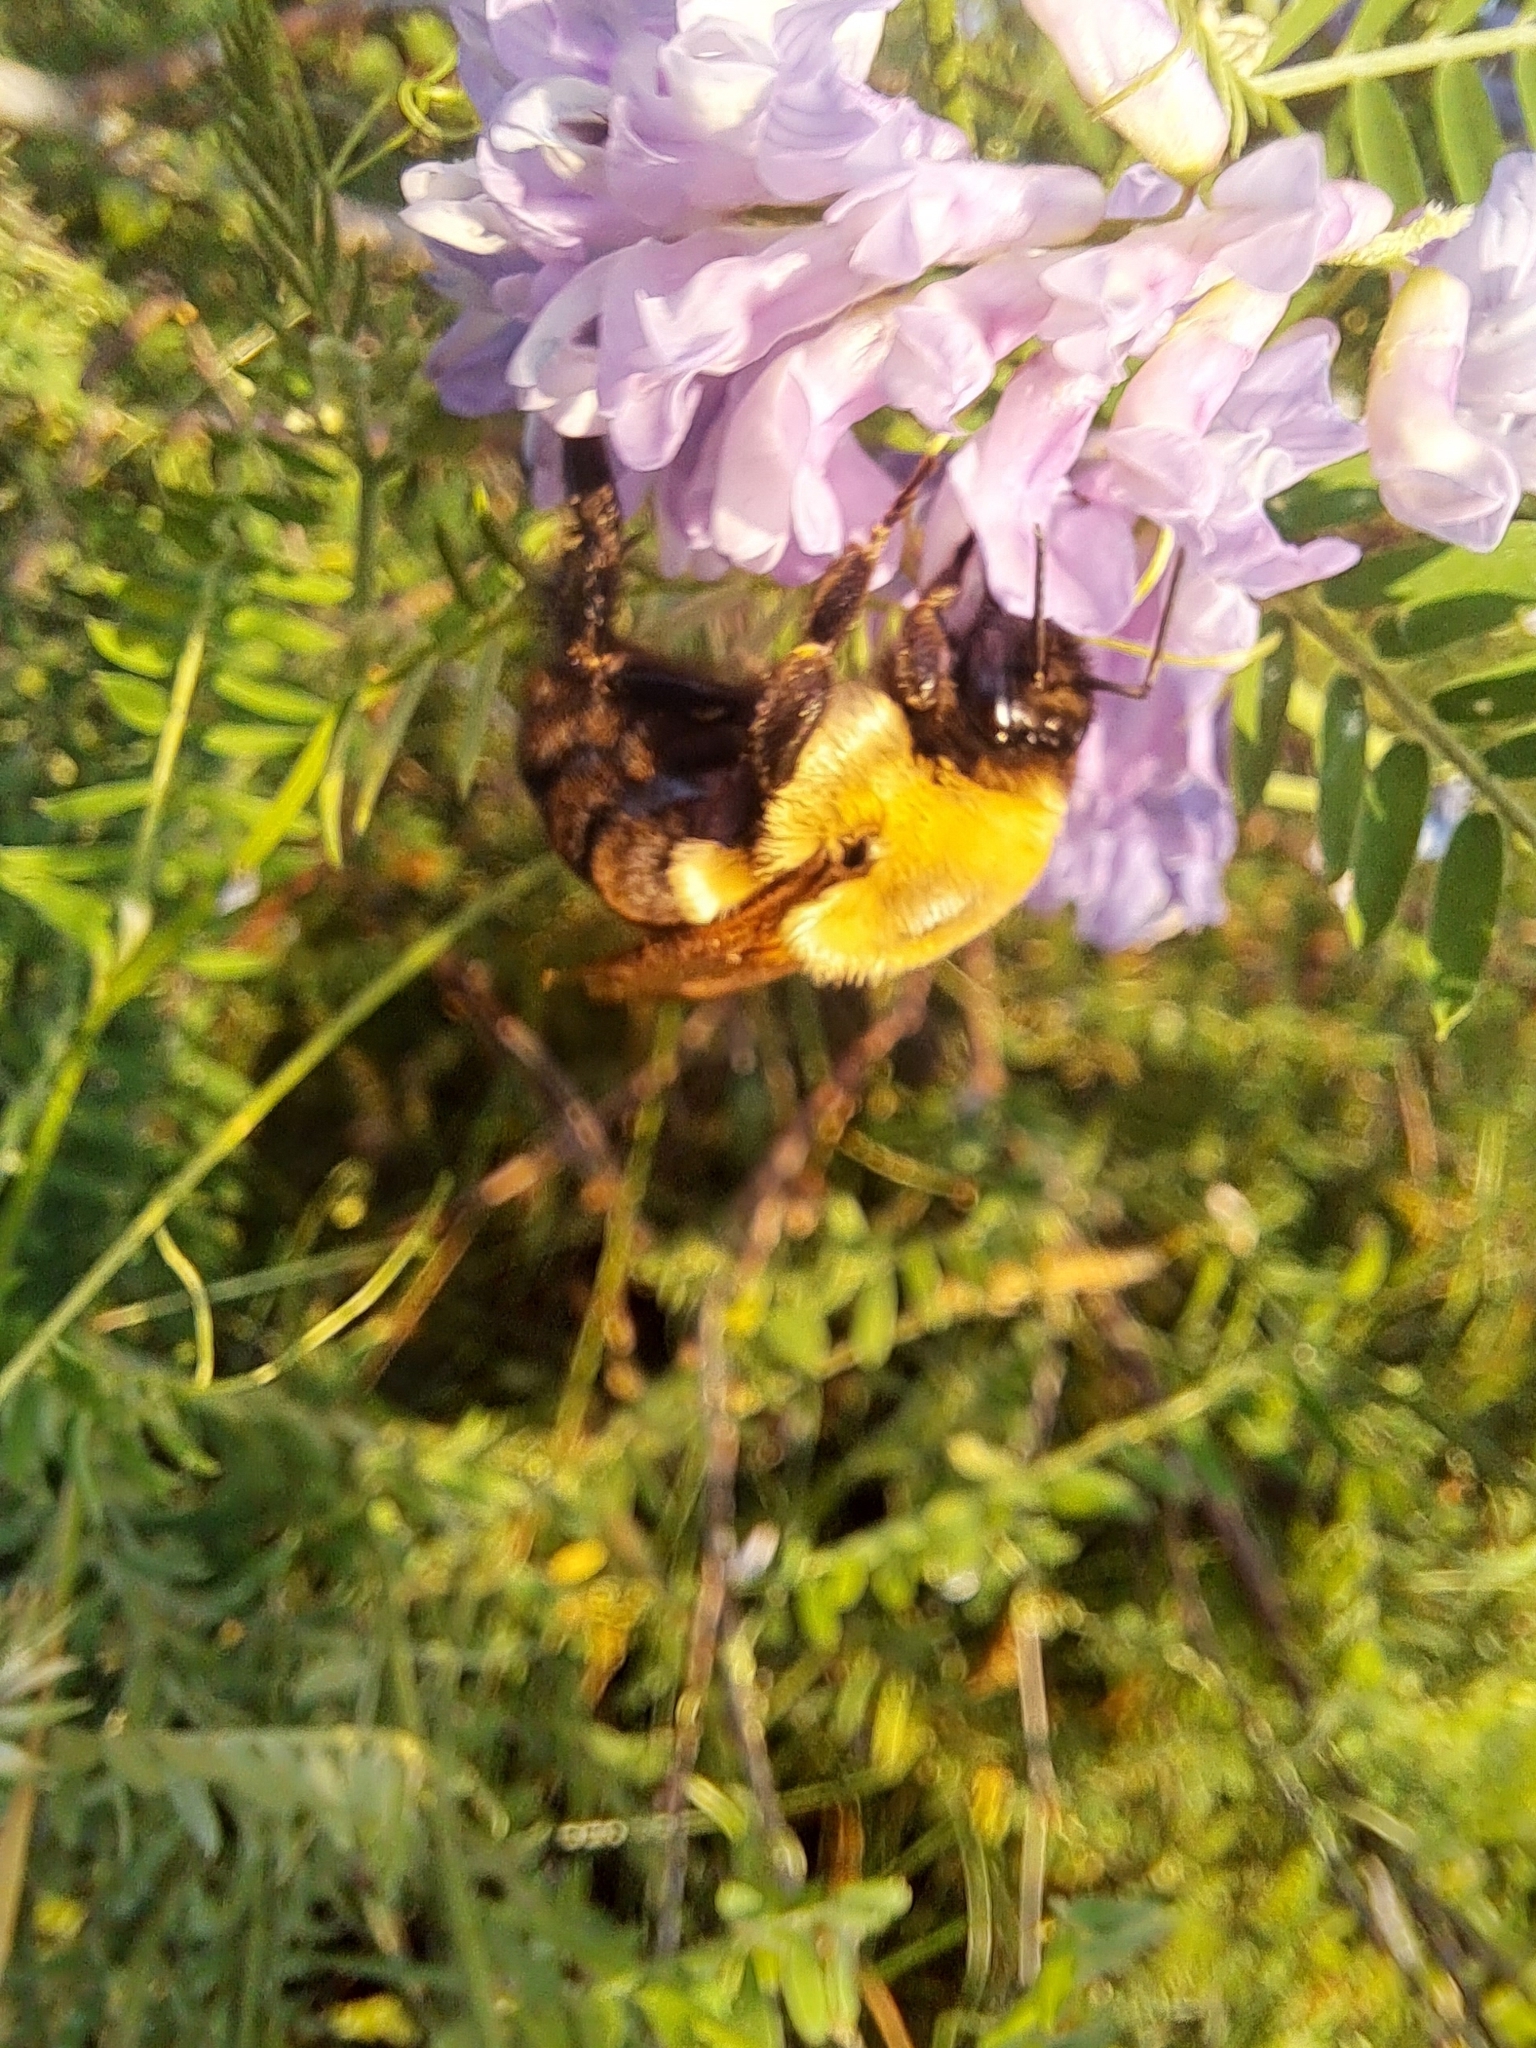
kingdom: Animalia
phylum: Arthropoda
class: Insecta
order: Hymenoptera
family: Apidae
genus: Bombus
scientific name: Bombus impatiens
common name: Common eastern bumble bee
